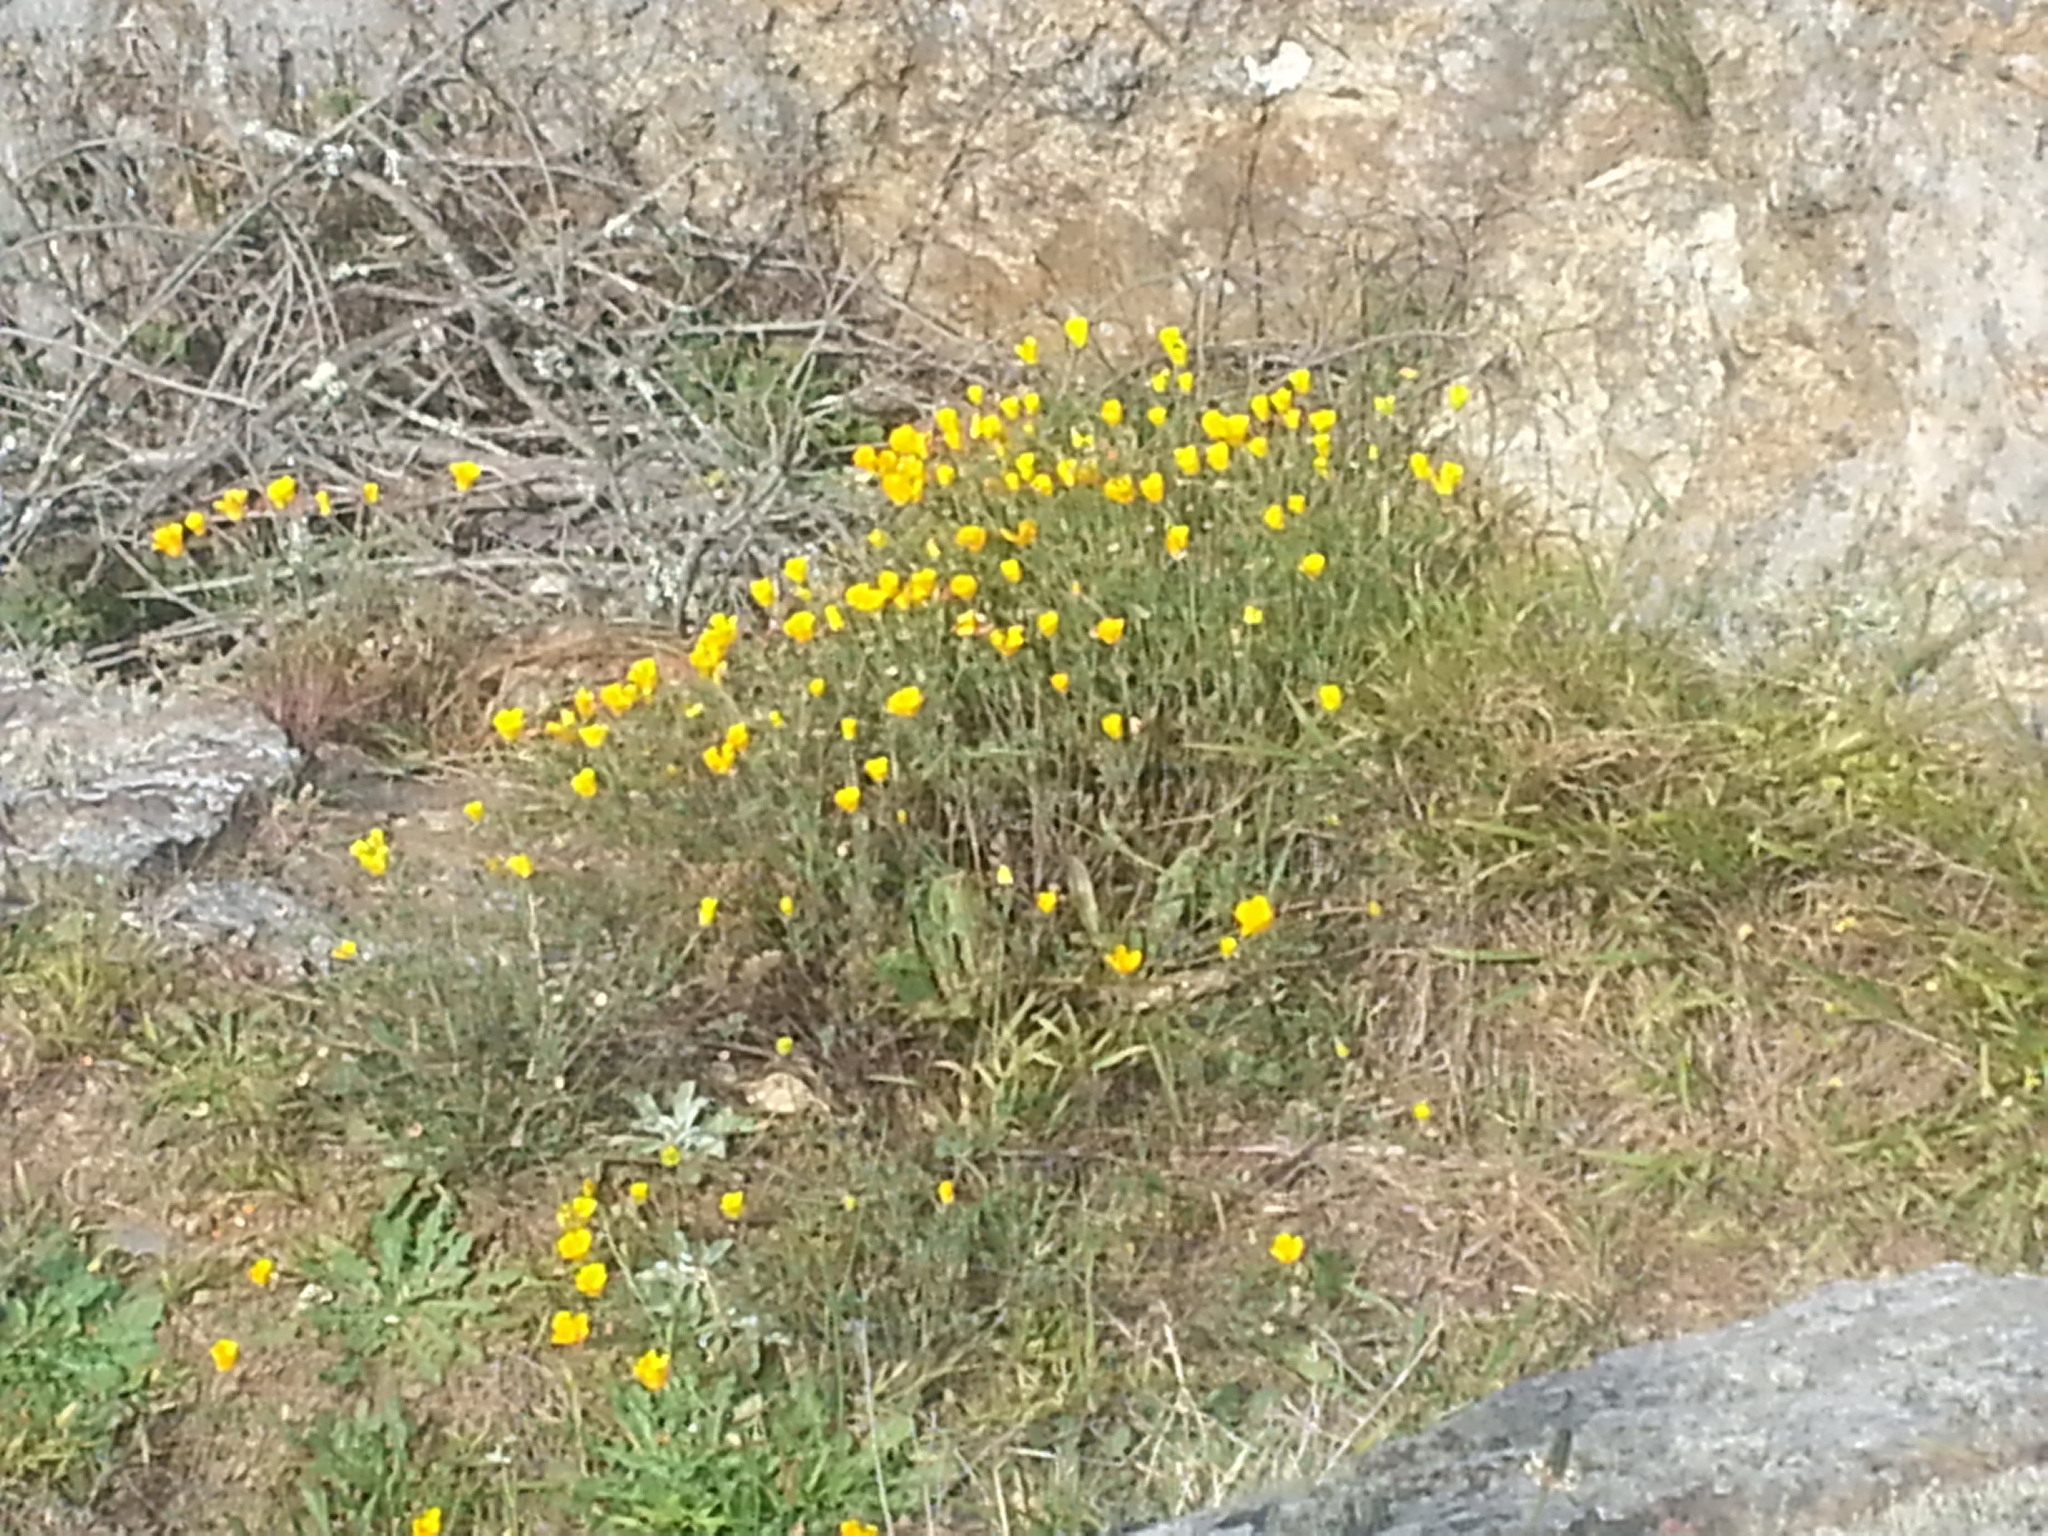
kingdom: Plantae
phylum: Tracheophyta
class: Magnoliopsida
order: Ranunculales
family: Papaveraceae
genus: Eschscholzia
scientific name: Eschscholzia californica
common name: California poppy
